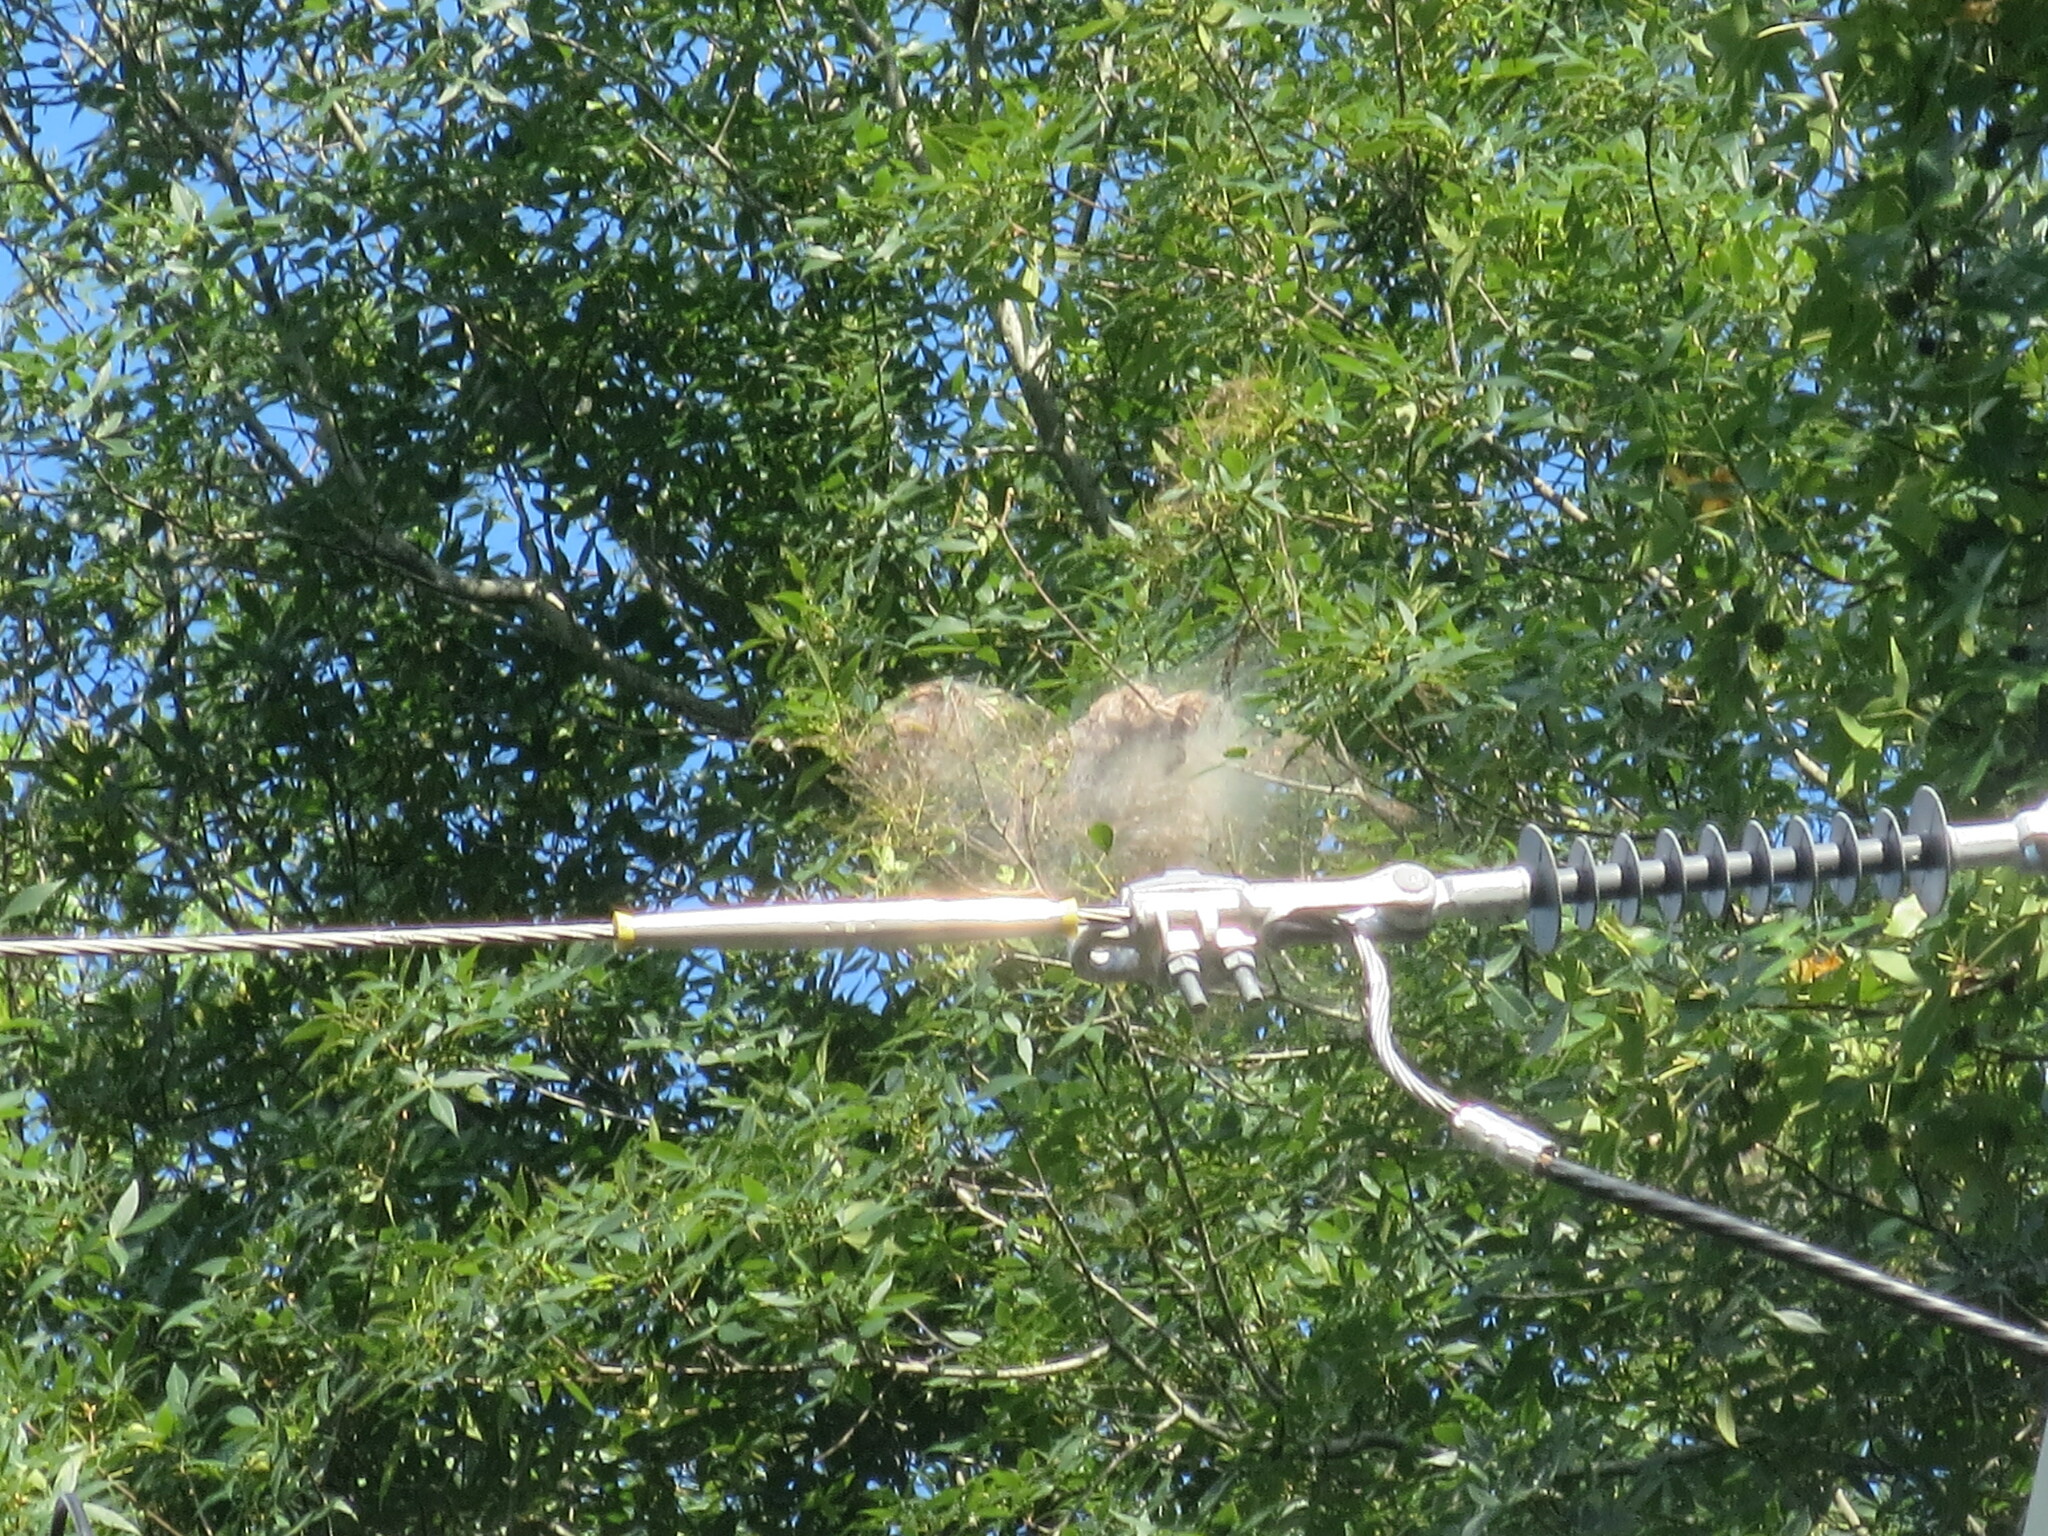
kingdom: Animalia
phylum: Arthropoda
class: Insecta
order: Lepidoptera
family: Erebidae
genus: Hyphantria
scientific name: Hyphantria cunea
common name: American white moth
